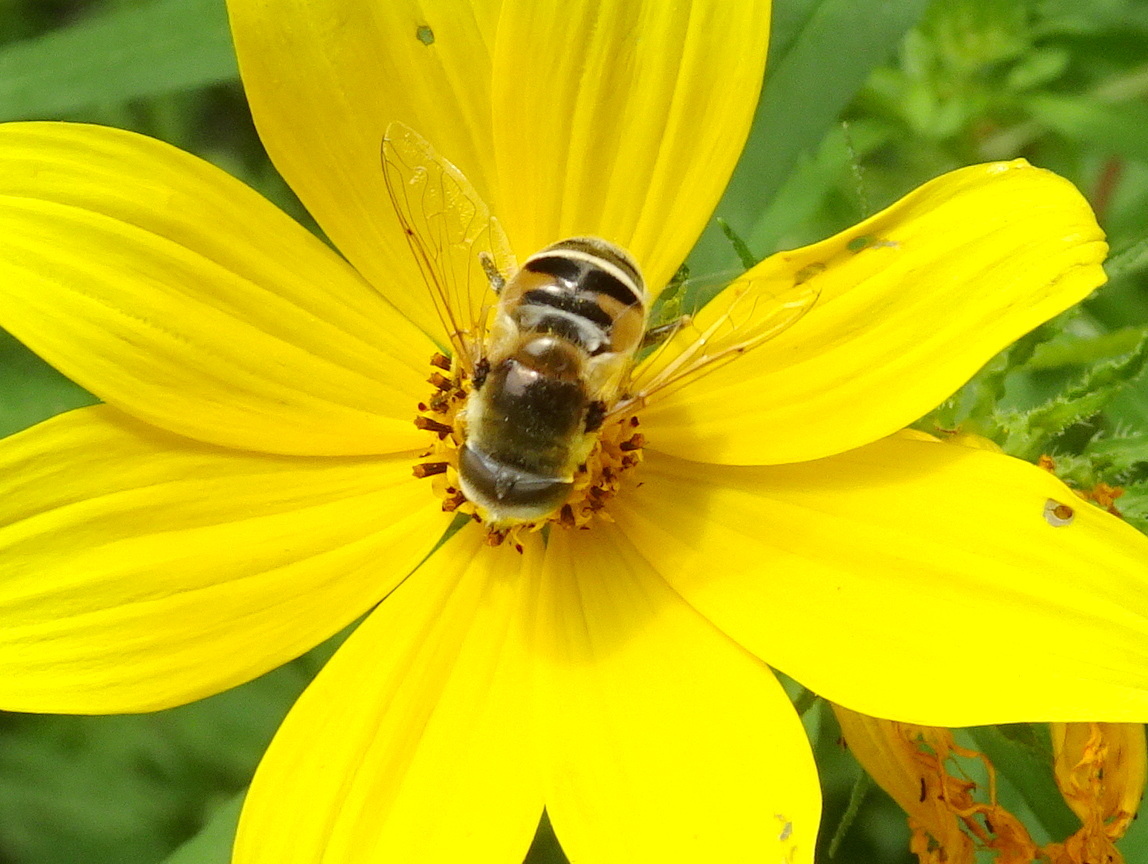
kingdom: Animalia
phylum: Arthropoda
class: Insecta
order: Diptera
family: Syrphidae
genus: Eristalis
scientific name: Eristalis stipator
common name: Yellow-shouldered drone fly
